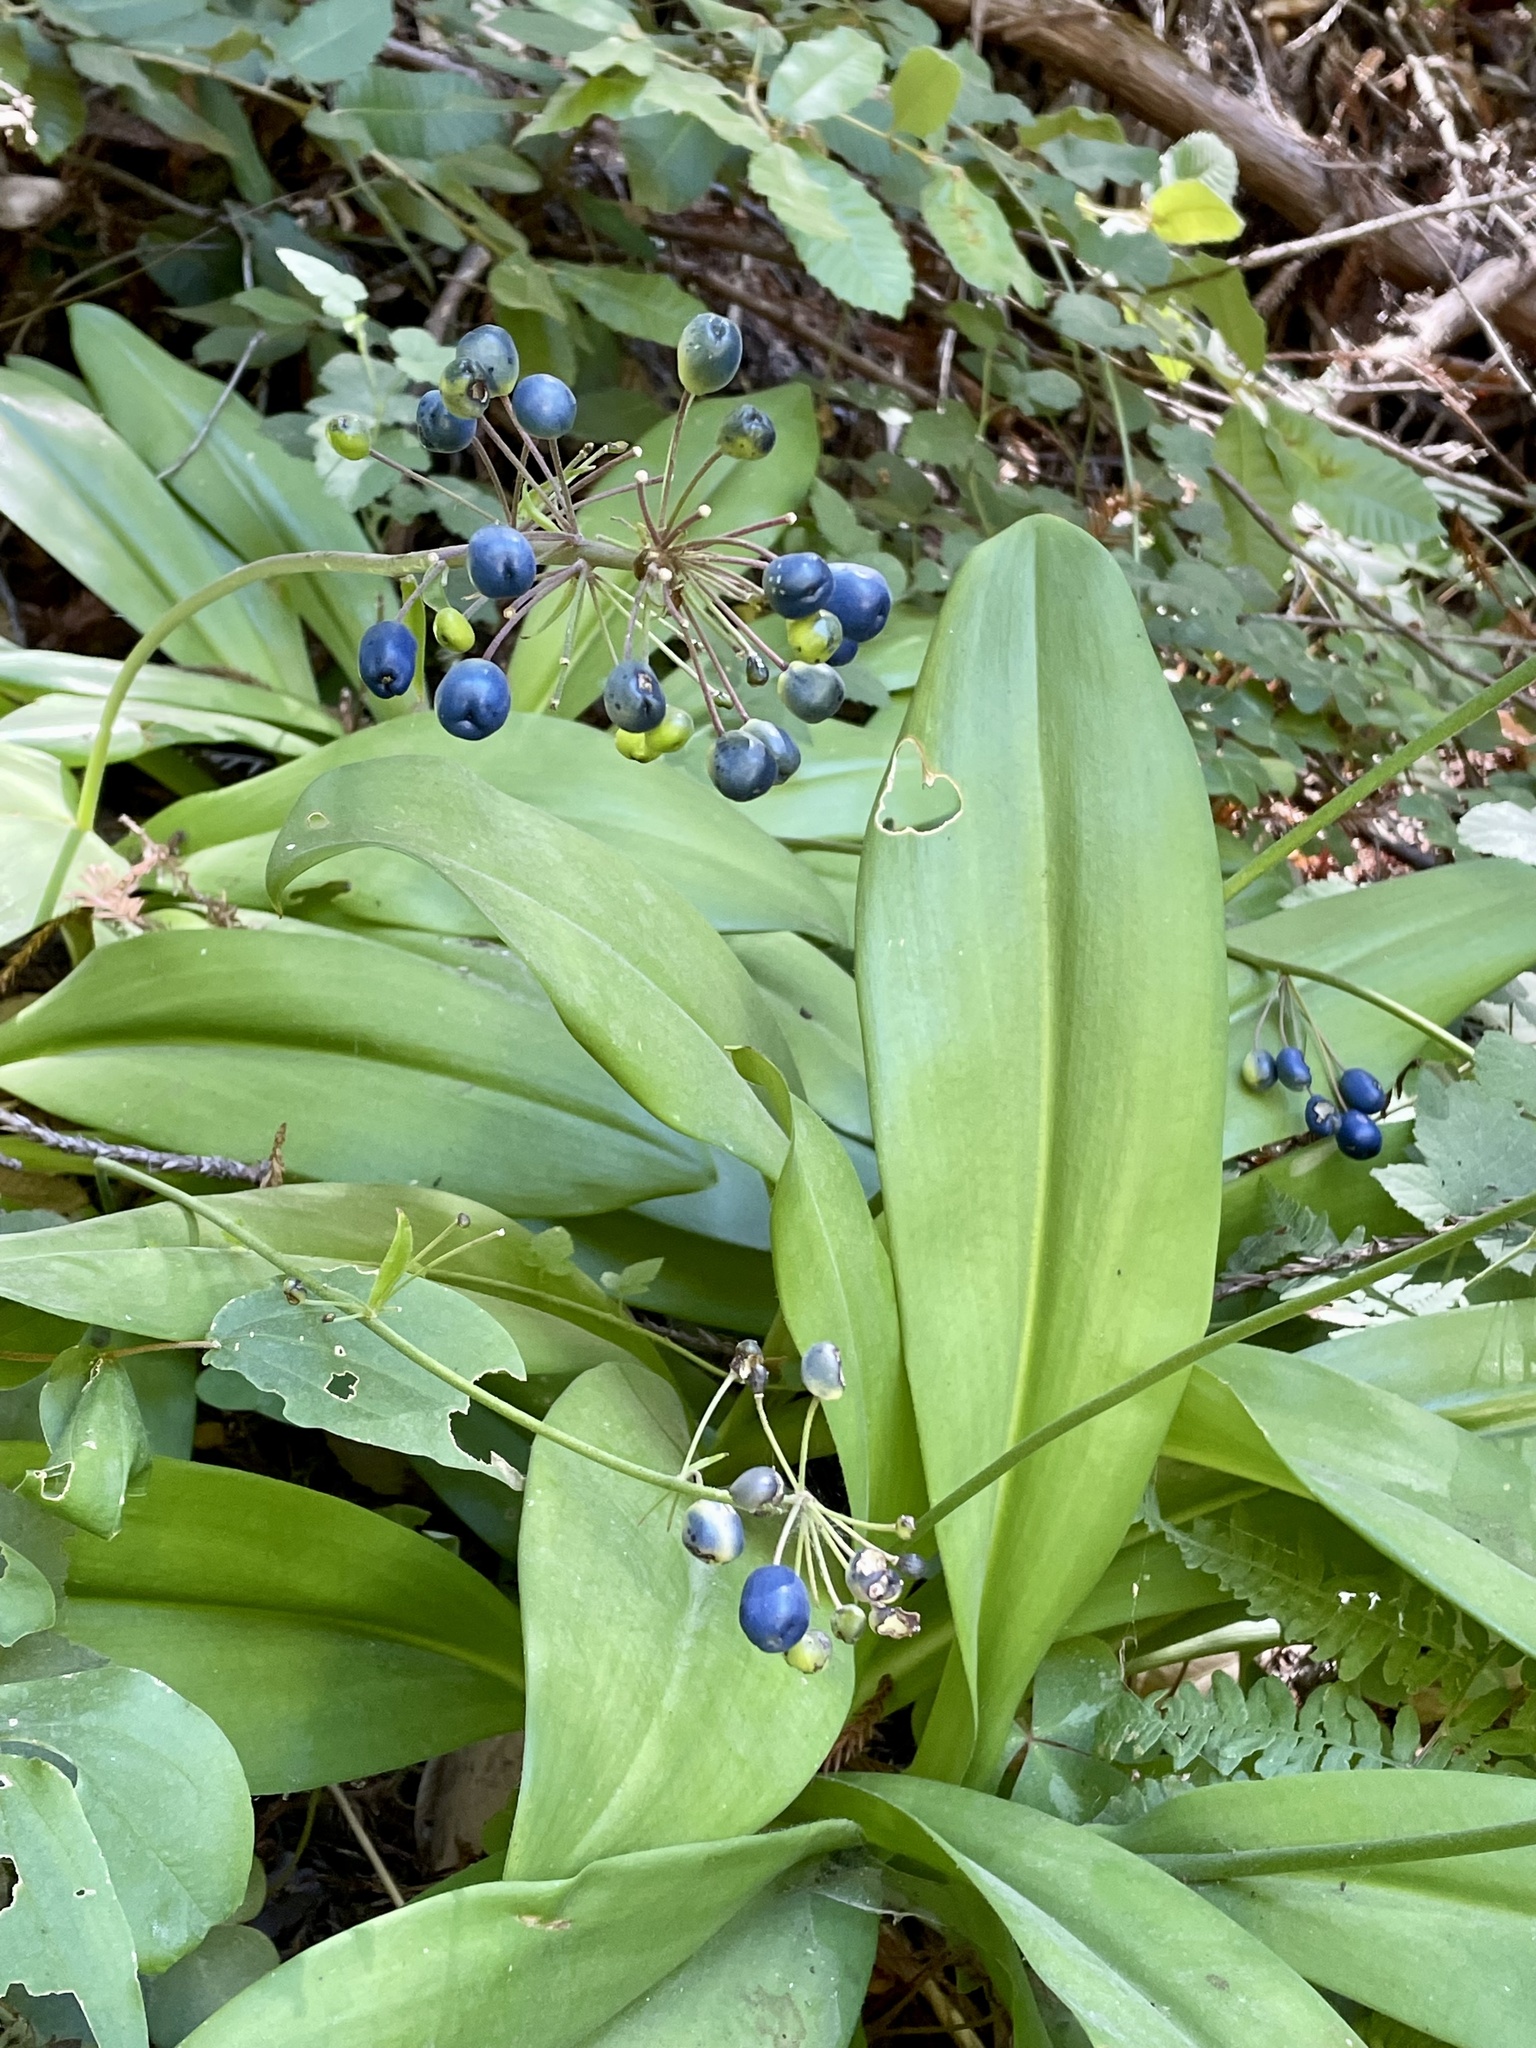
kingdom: Plantae
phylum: Tracheophyta
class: Liliopsida
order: Liliales
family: Liliaceae
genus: Clintonia
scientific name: Clintonia andrewsiana
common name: Red clintonia
